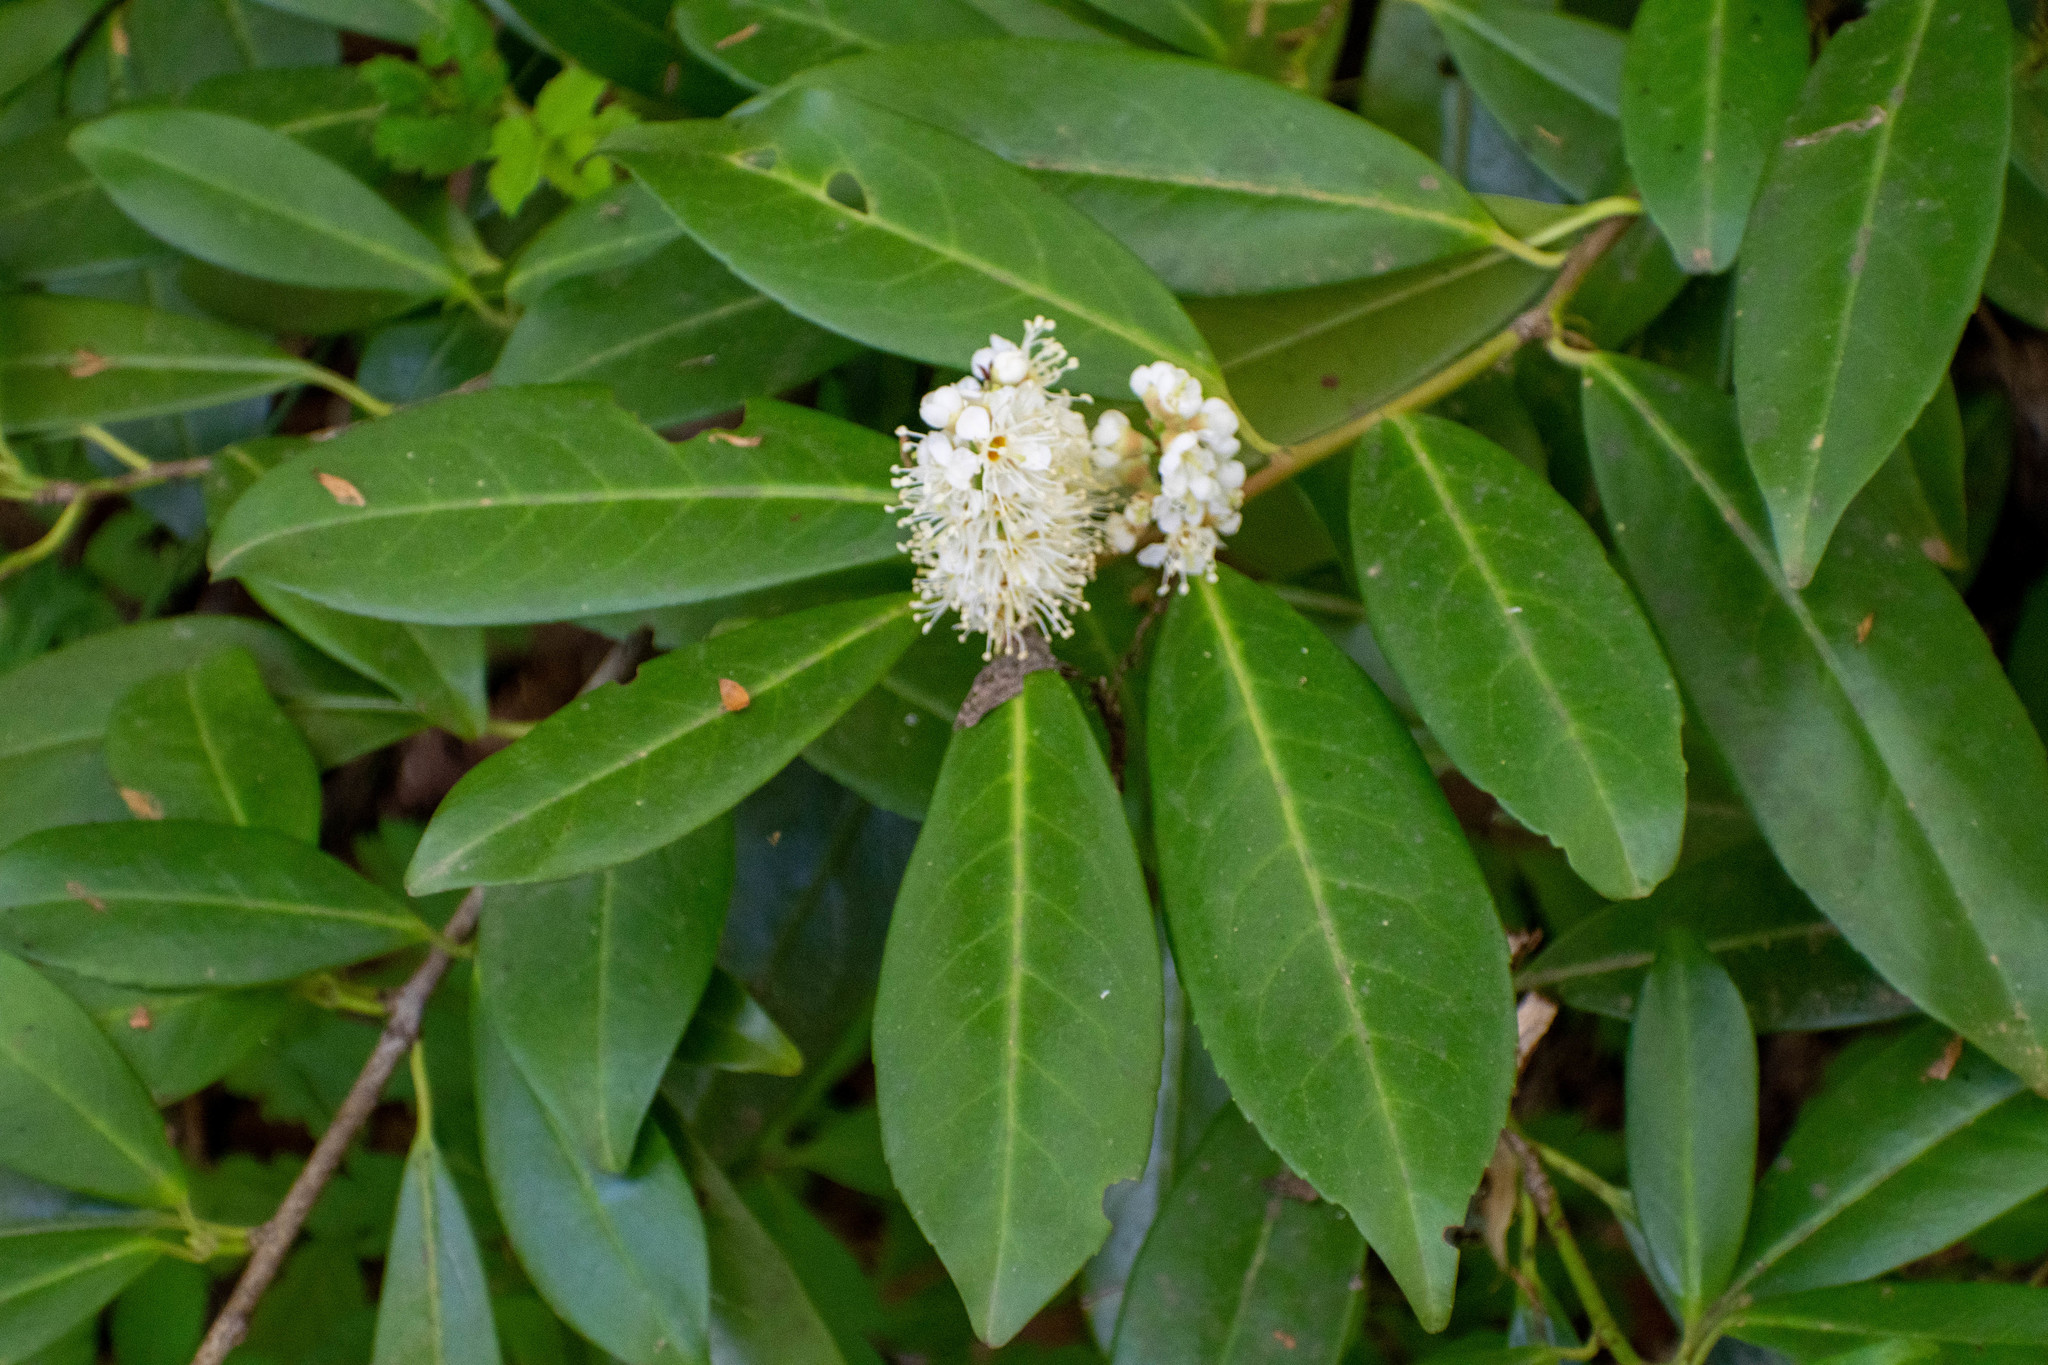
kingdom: Plantae
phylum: Tracheophyta
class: Magnoliopsida
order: Rosales
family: Rosaceae
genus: Prunus
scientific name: Prunus laurocerasus
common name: Cherry laurel
